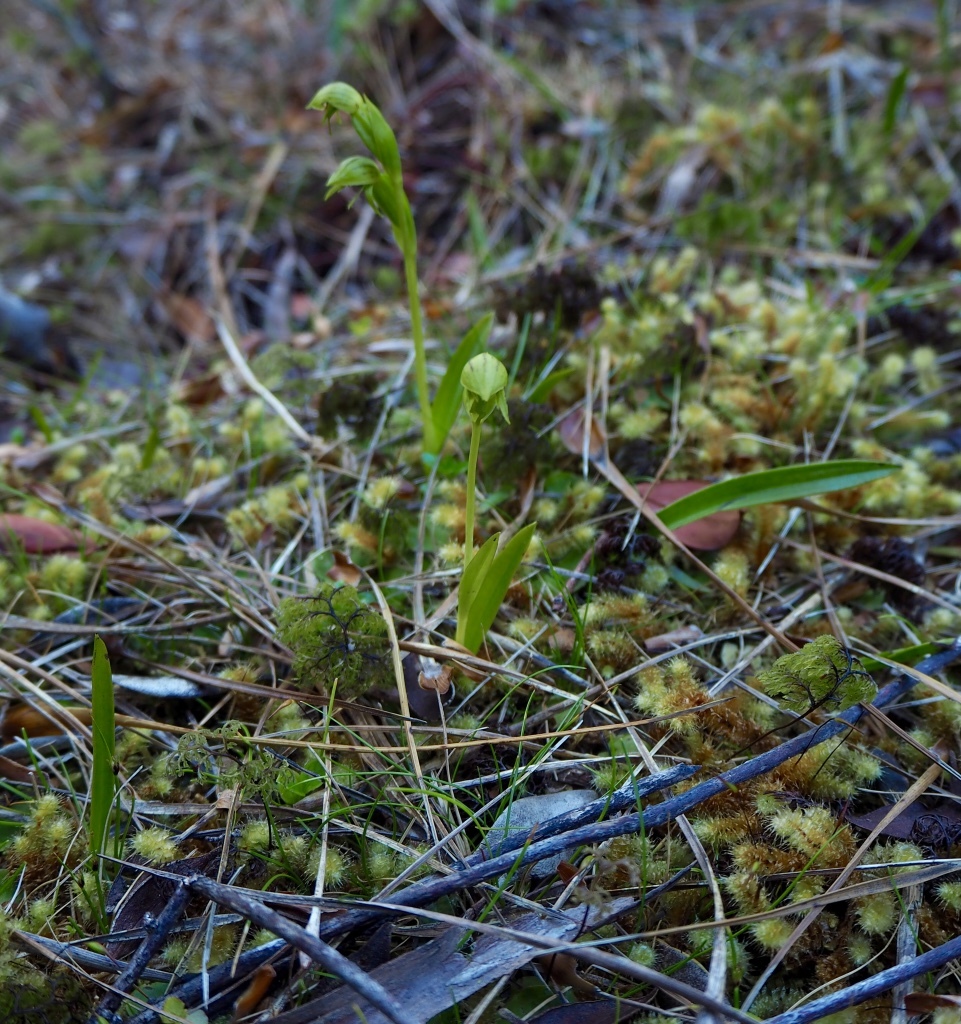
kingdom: Plantae
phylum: Tracheophyta
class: Liliopsida
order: Asparagales
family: Orchidaceae
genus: Waireia
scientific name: Waireia stenopetala
